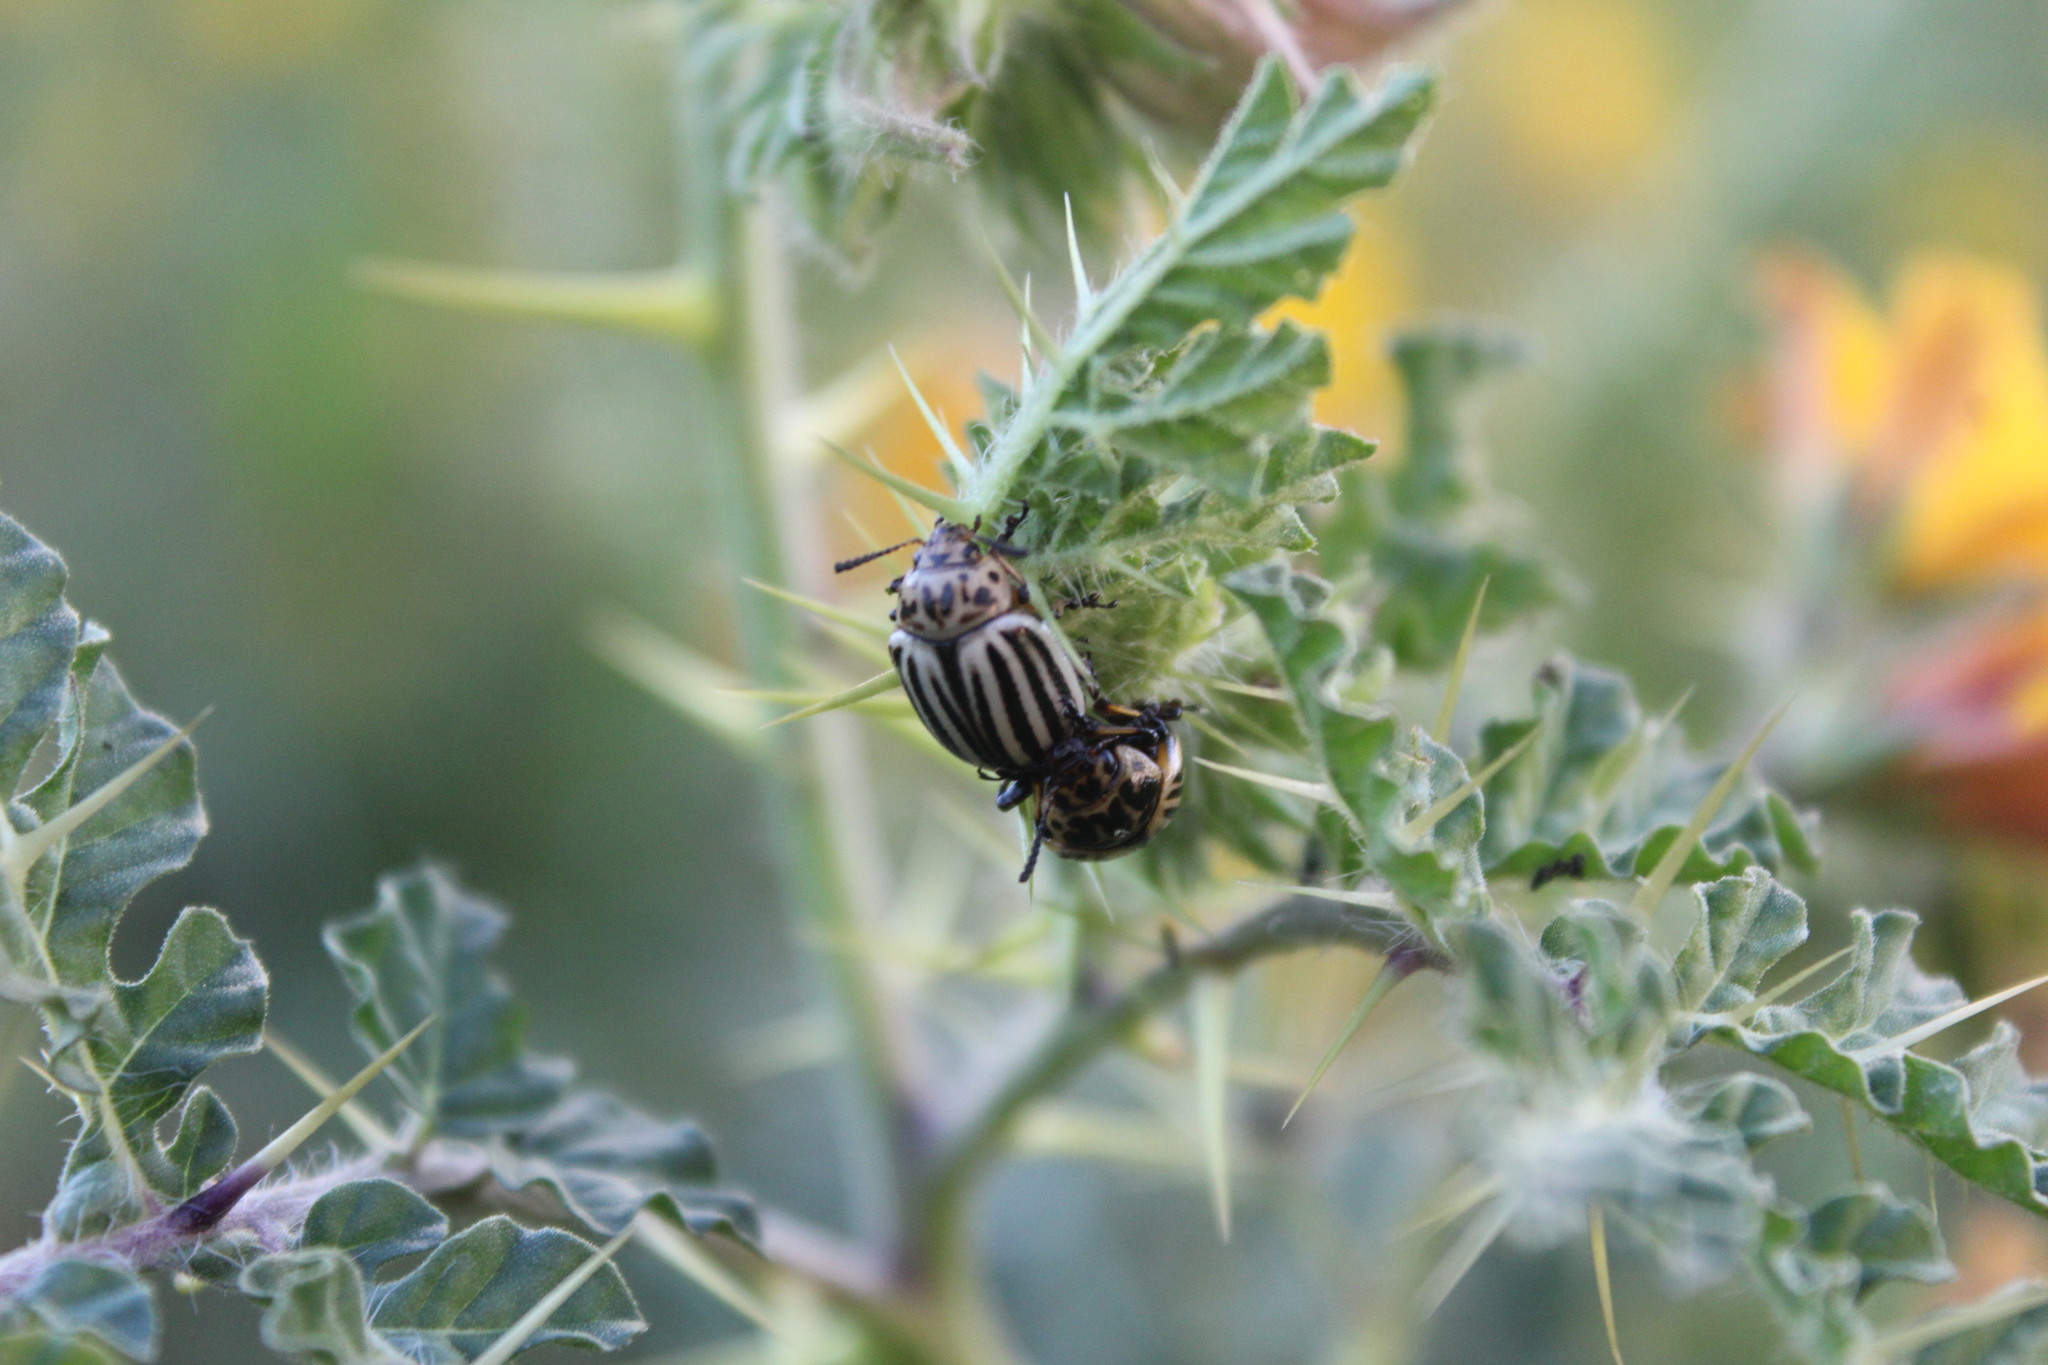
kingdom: Animalia
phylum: Arthropoda
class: Insecta
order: Coleoptera
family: Chrysomelidae
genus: Leptinotarsa
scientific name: Leptinotarsa decemlineata
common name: Colorado potato beetle
